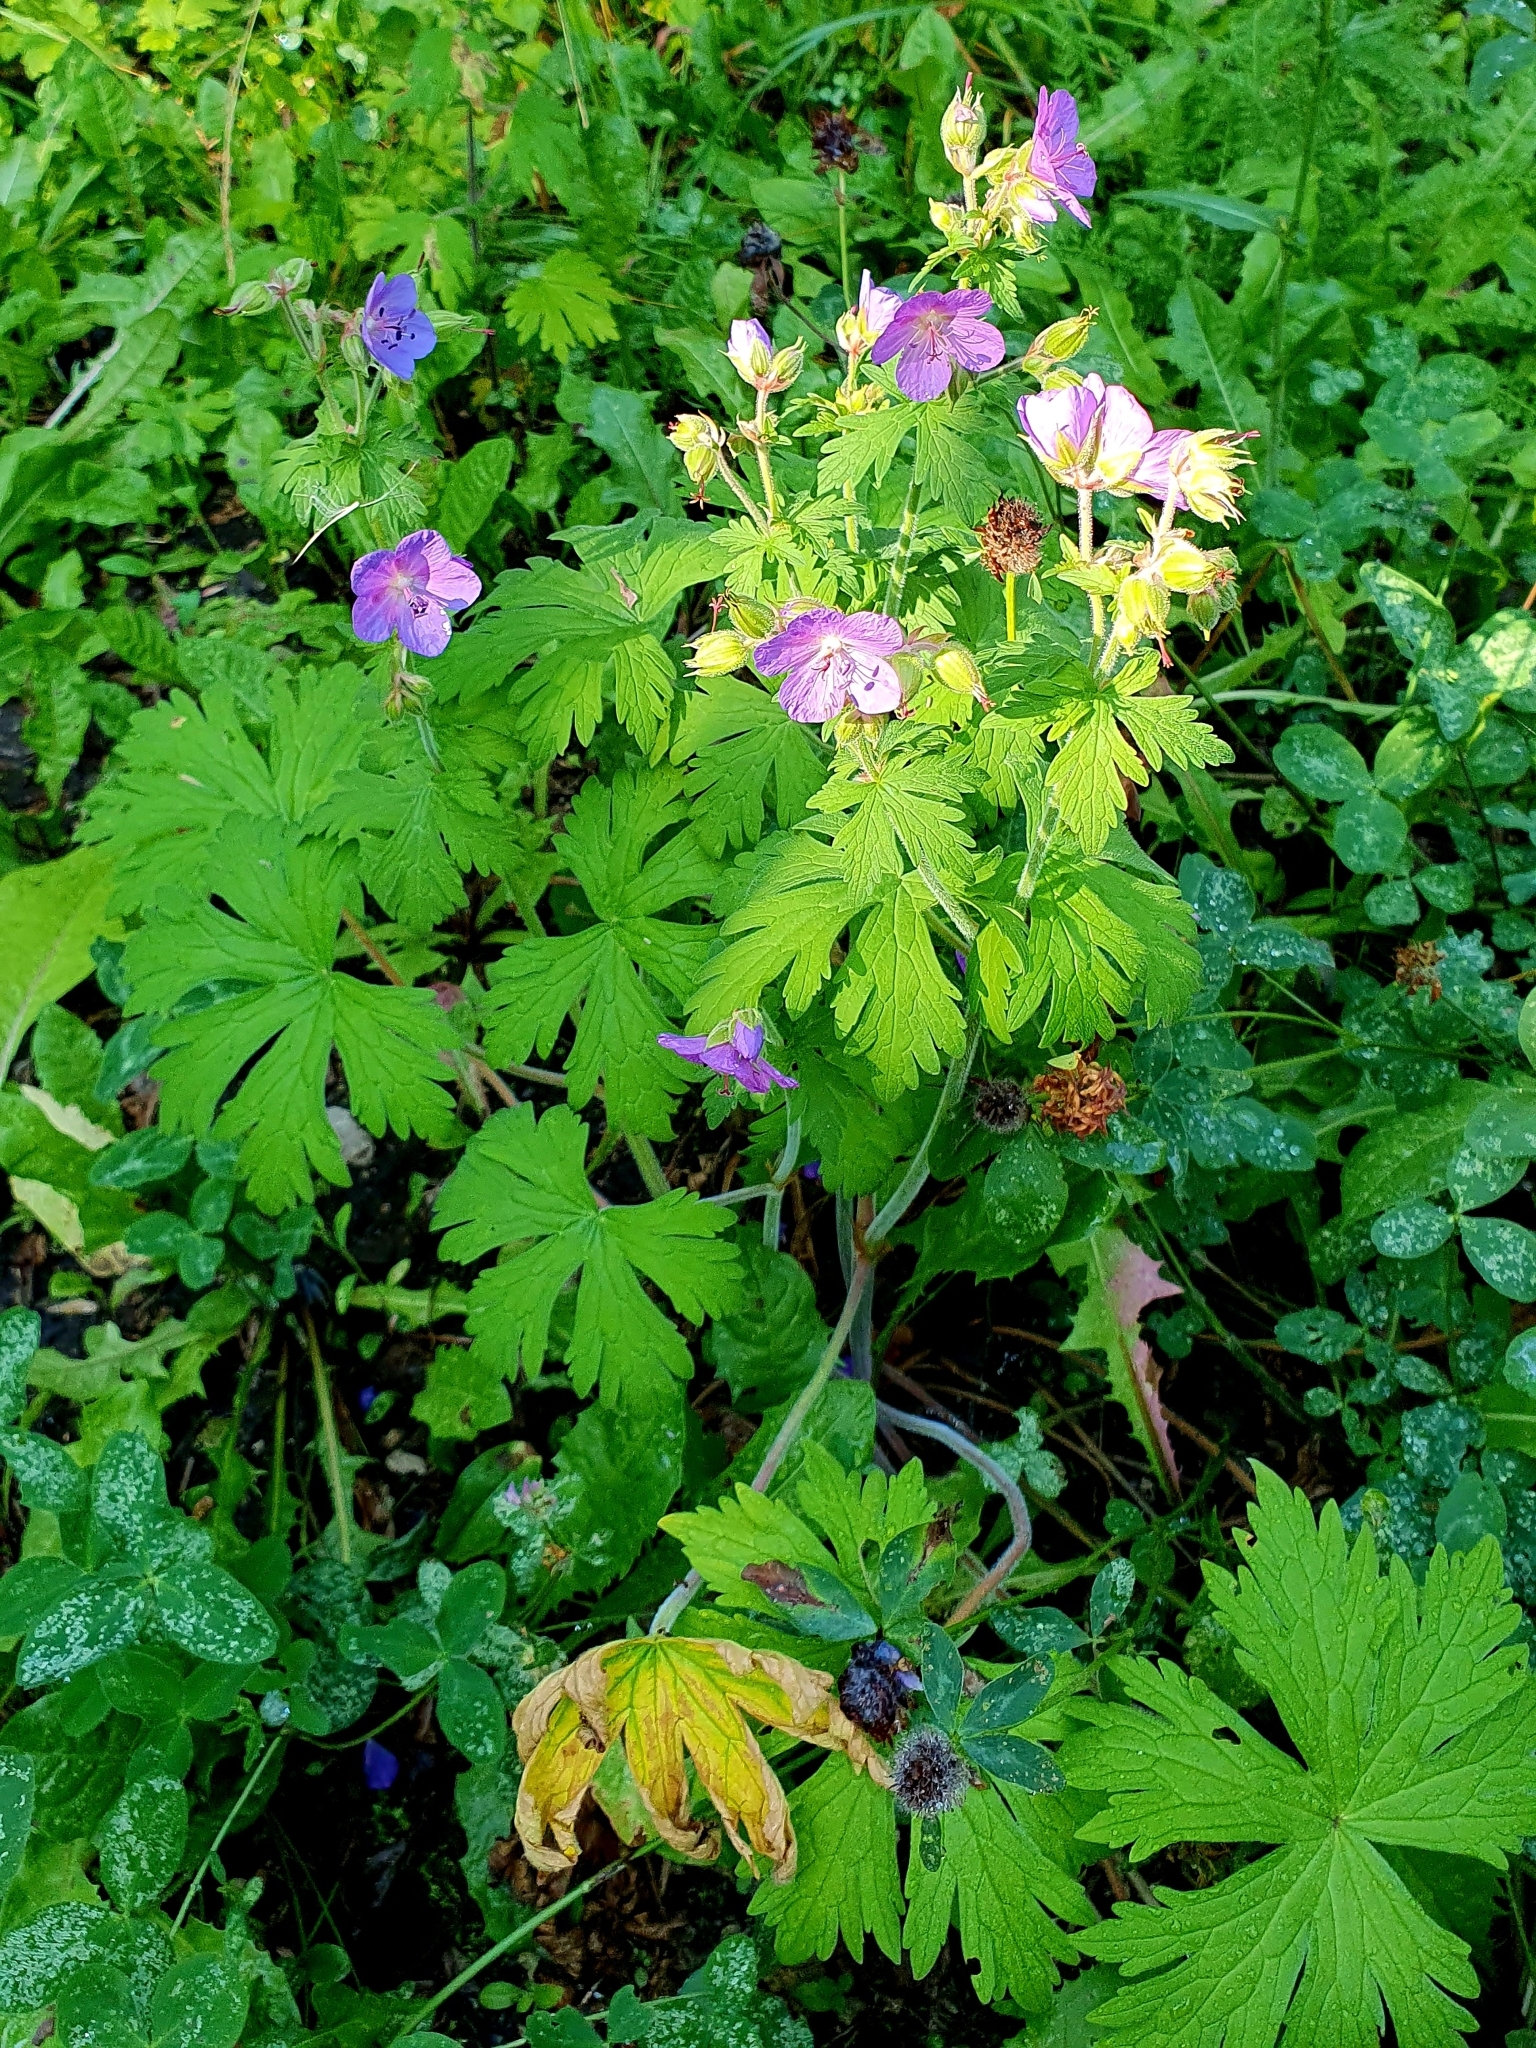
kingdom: Plantae
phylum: Tracheophyta
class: Magnoliopsida
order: Geraniales
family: Geraniaceae
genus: Geranium
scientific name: Geranium pratense
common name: Meadow crane's-bill
